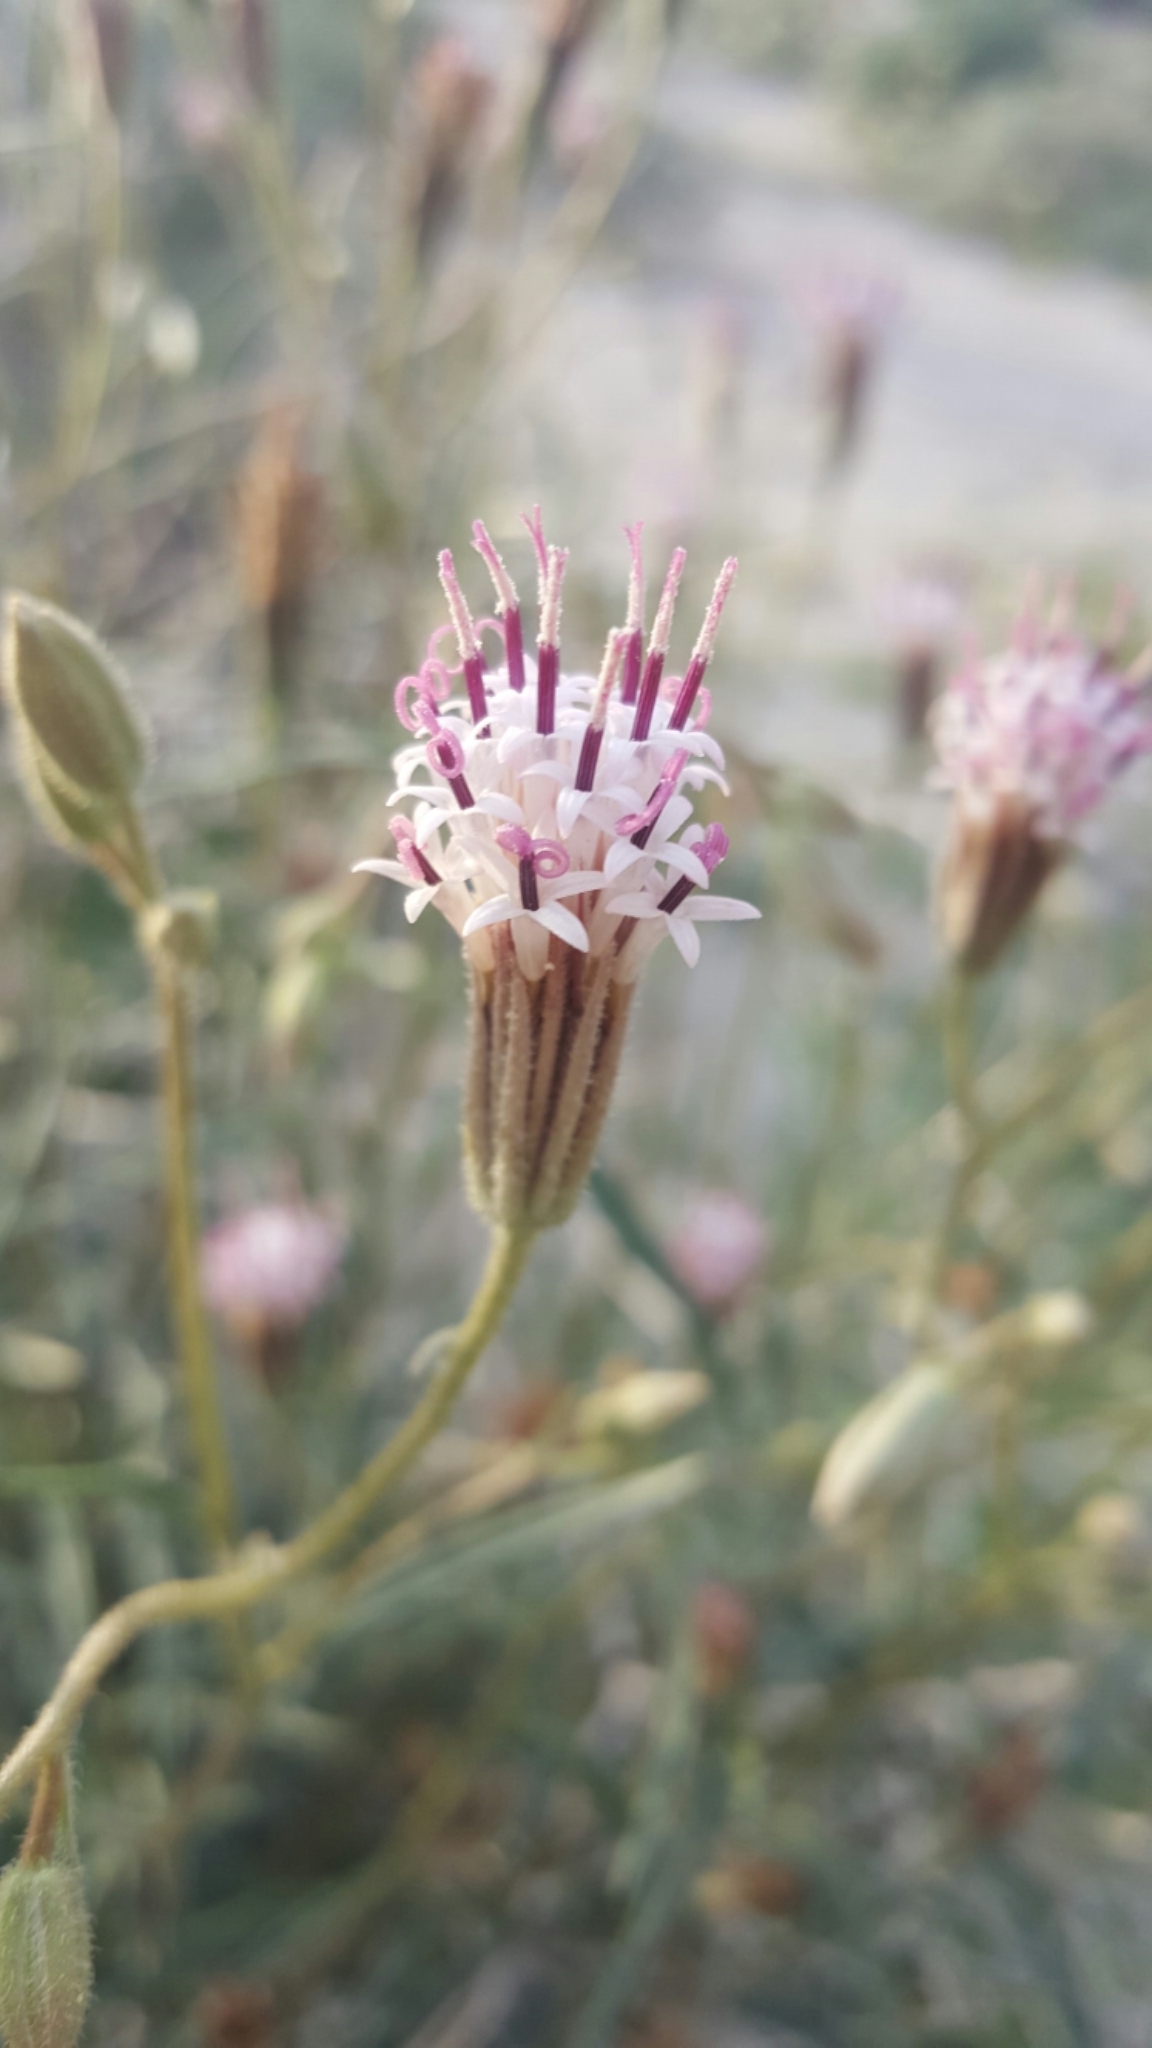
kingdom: Plantae
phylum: Tracheophyta
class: Magnoliopsida
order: Asterales
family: Asteraceae
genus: Palafoxia
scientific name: Palafoxia arida
